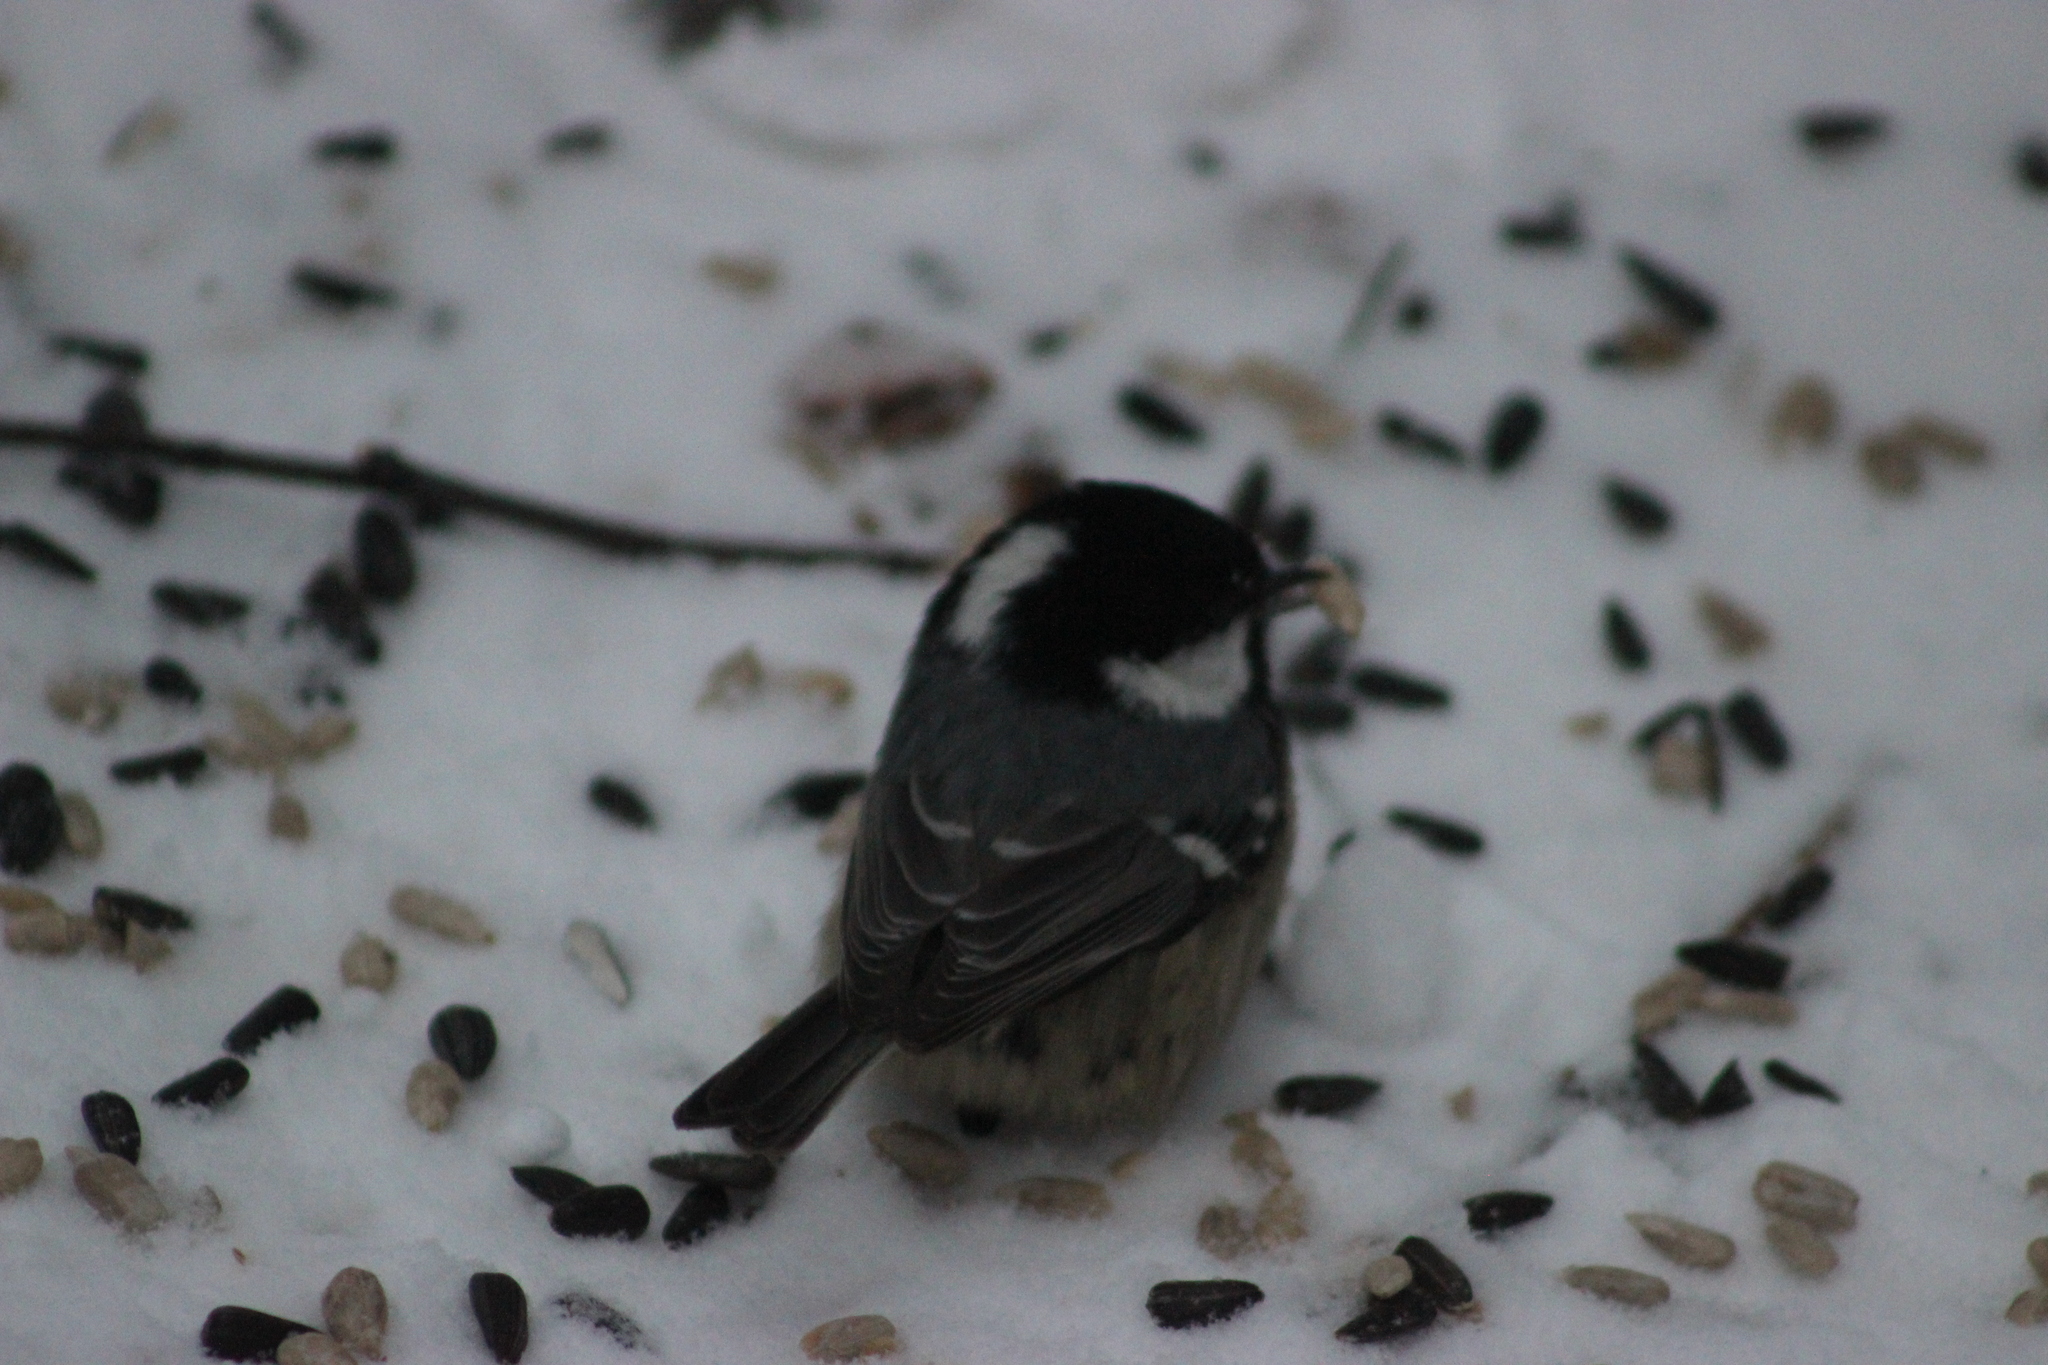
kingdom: Animalia
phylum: Chordata
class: Aves
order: Passeriformes
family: Paridae
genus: Periparus
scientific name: Periparus ater
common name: Coal tit
